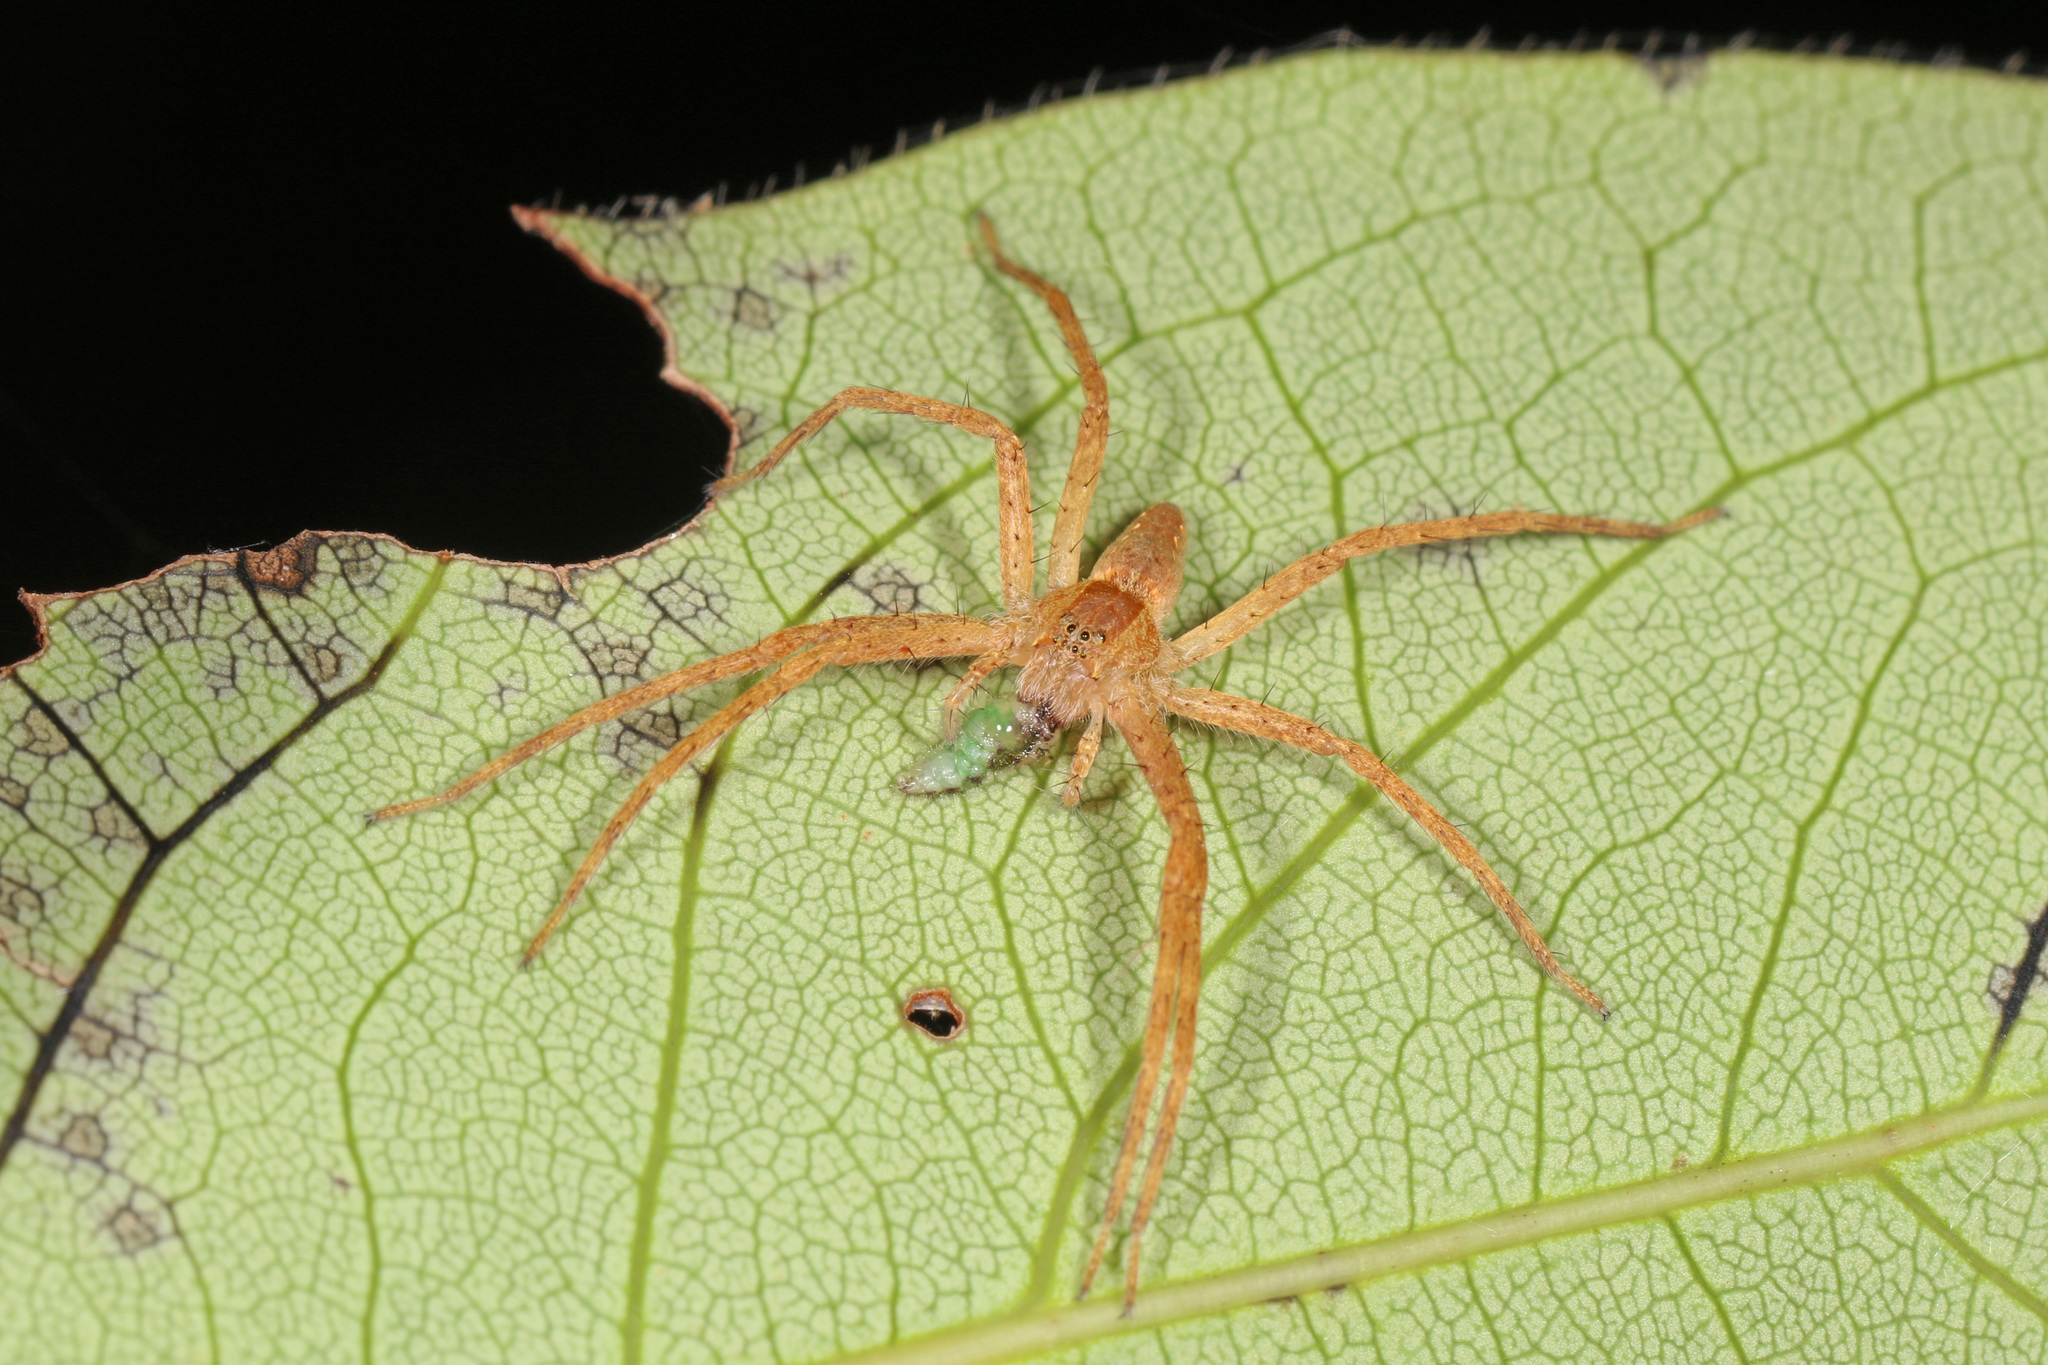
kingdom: Animalia
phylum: Arthropoda
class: Arachnida
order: Araneae
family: Pisauridae
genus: Pisaurina
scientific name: Pisaurina mira
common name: American nursery web spider
